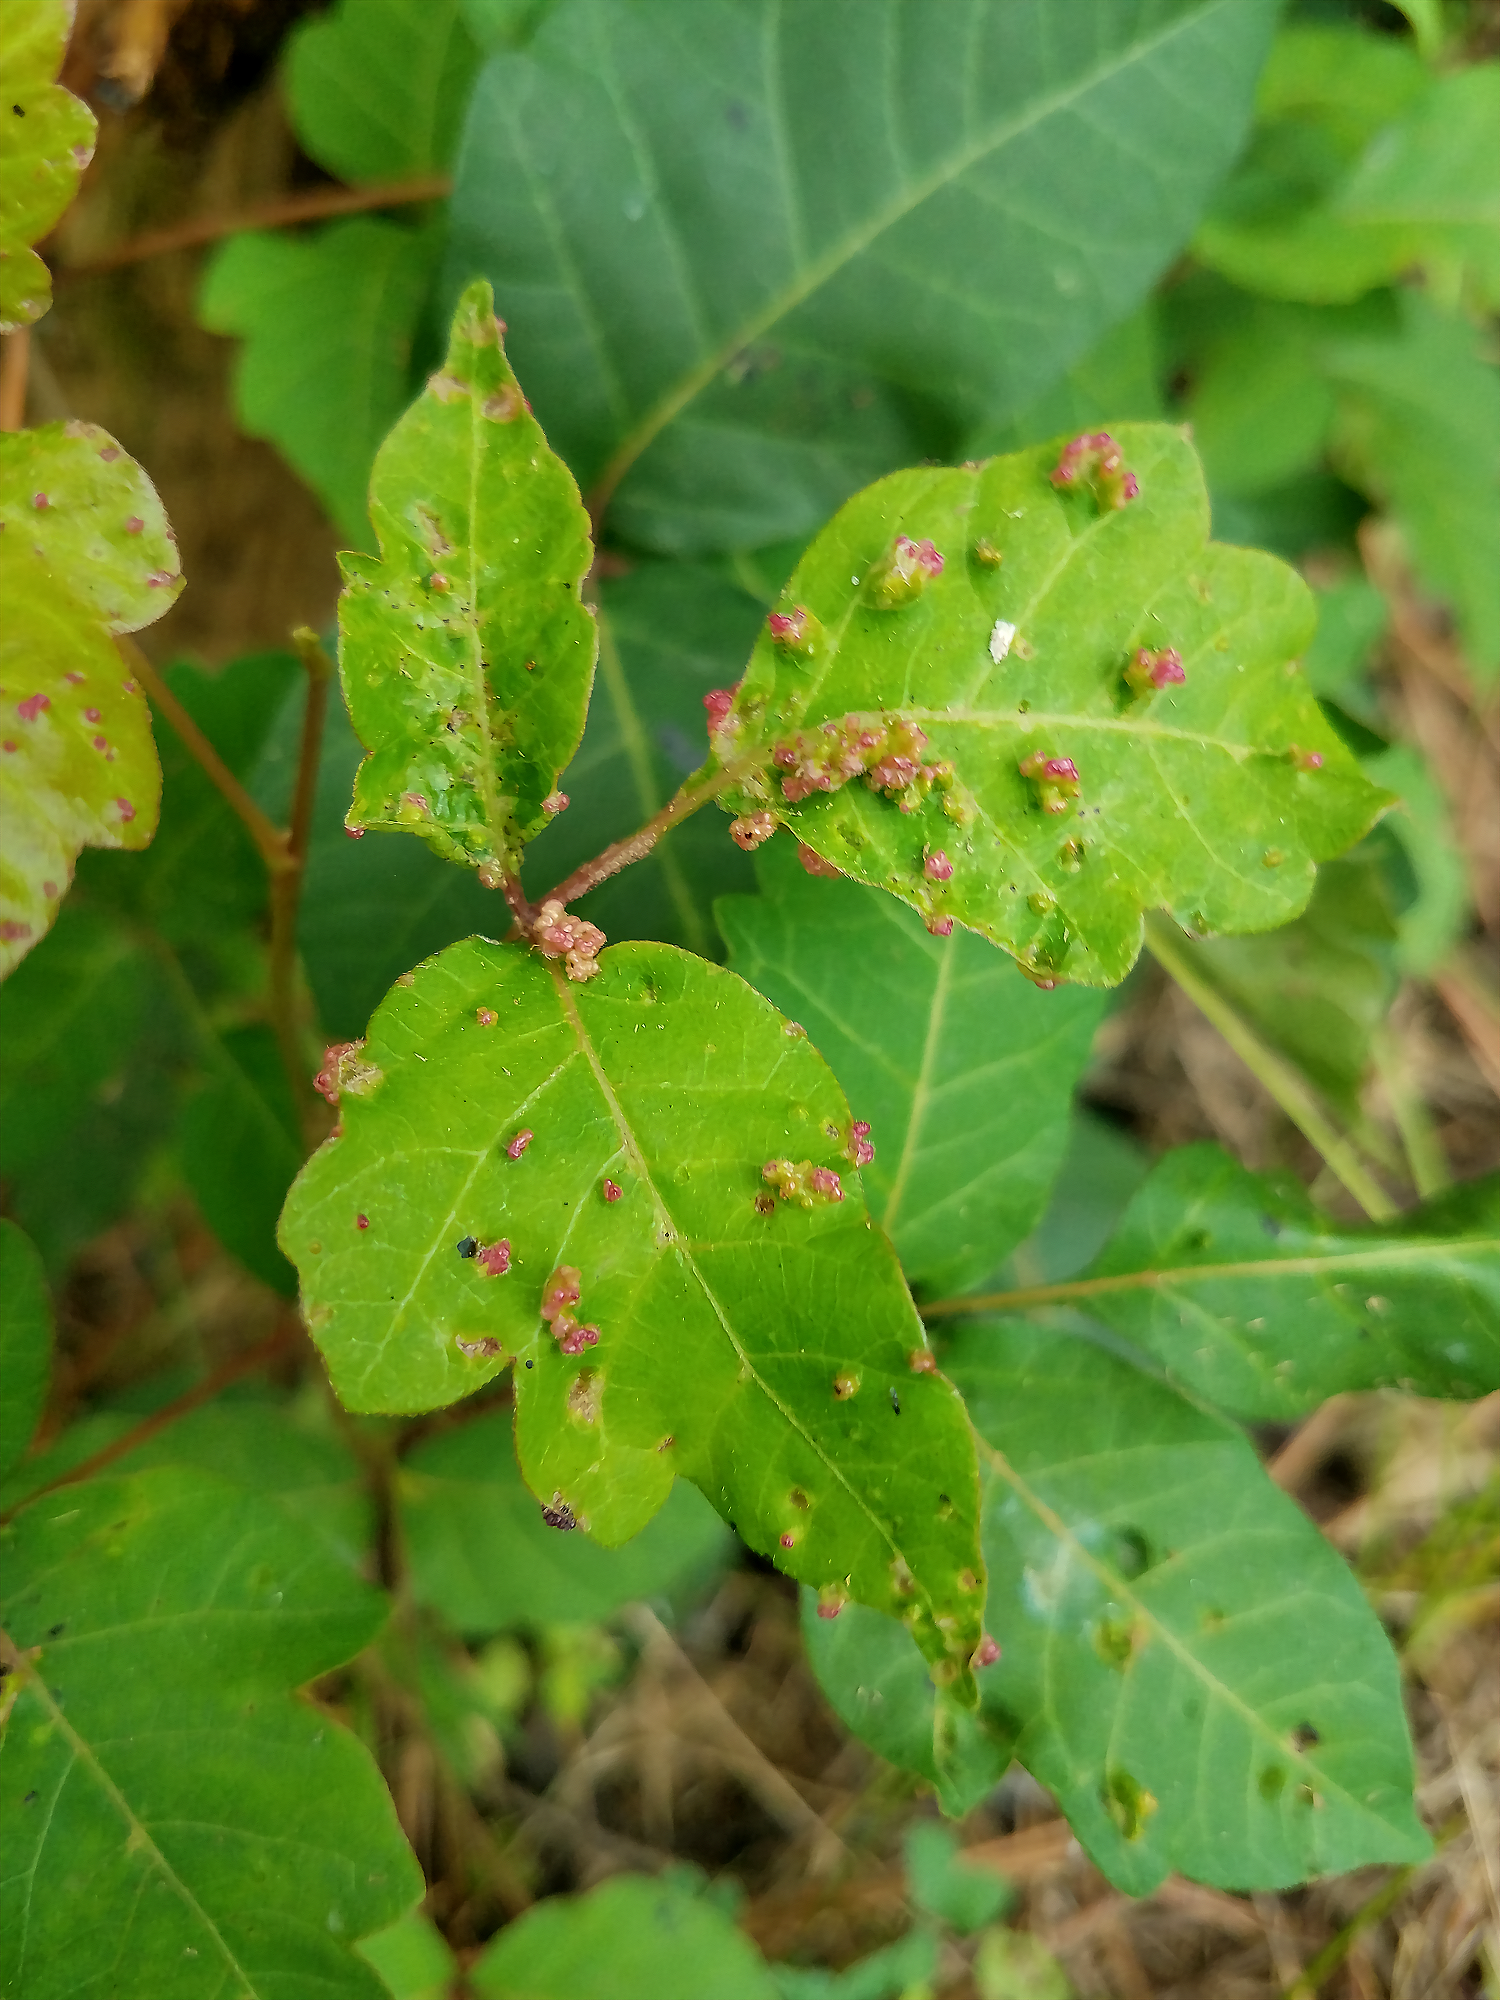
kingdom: Animalia
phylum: Arthropoda
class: Arachnida
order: Trombidiformes
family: Eriophyidae
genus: Aculops
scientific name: Aculops
